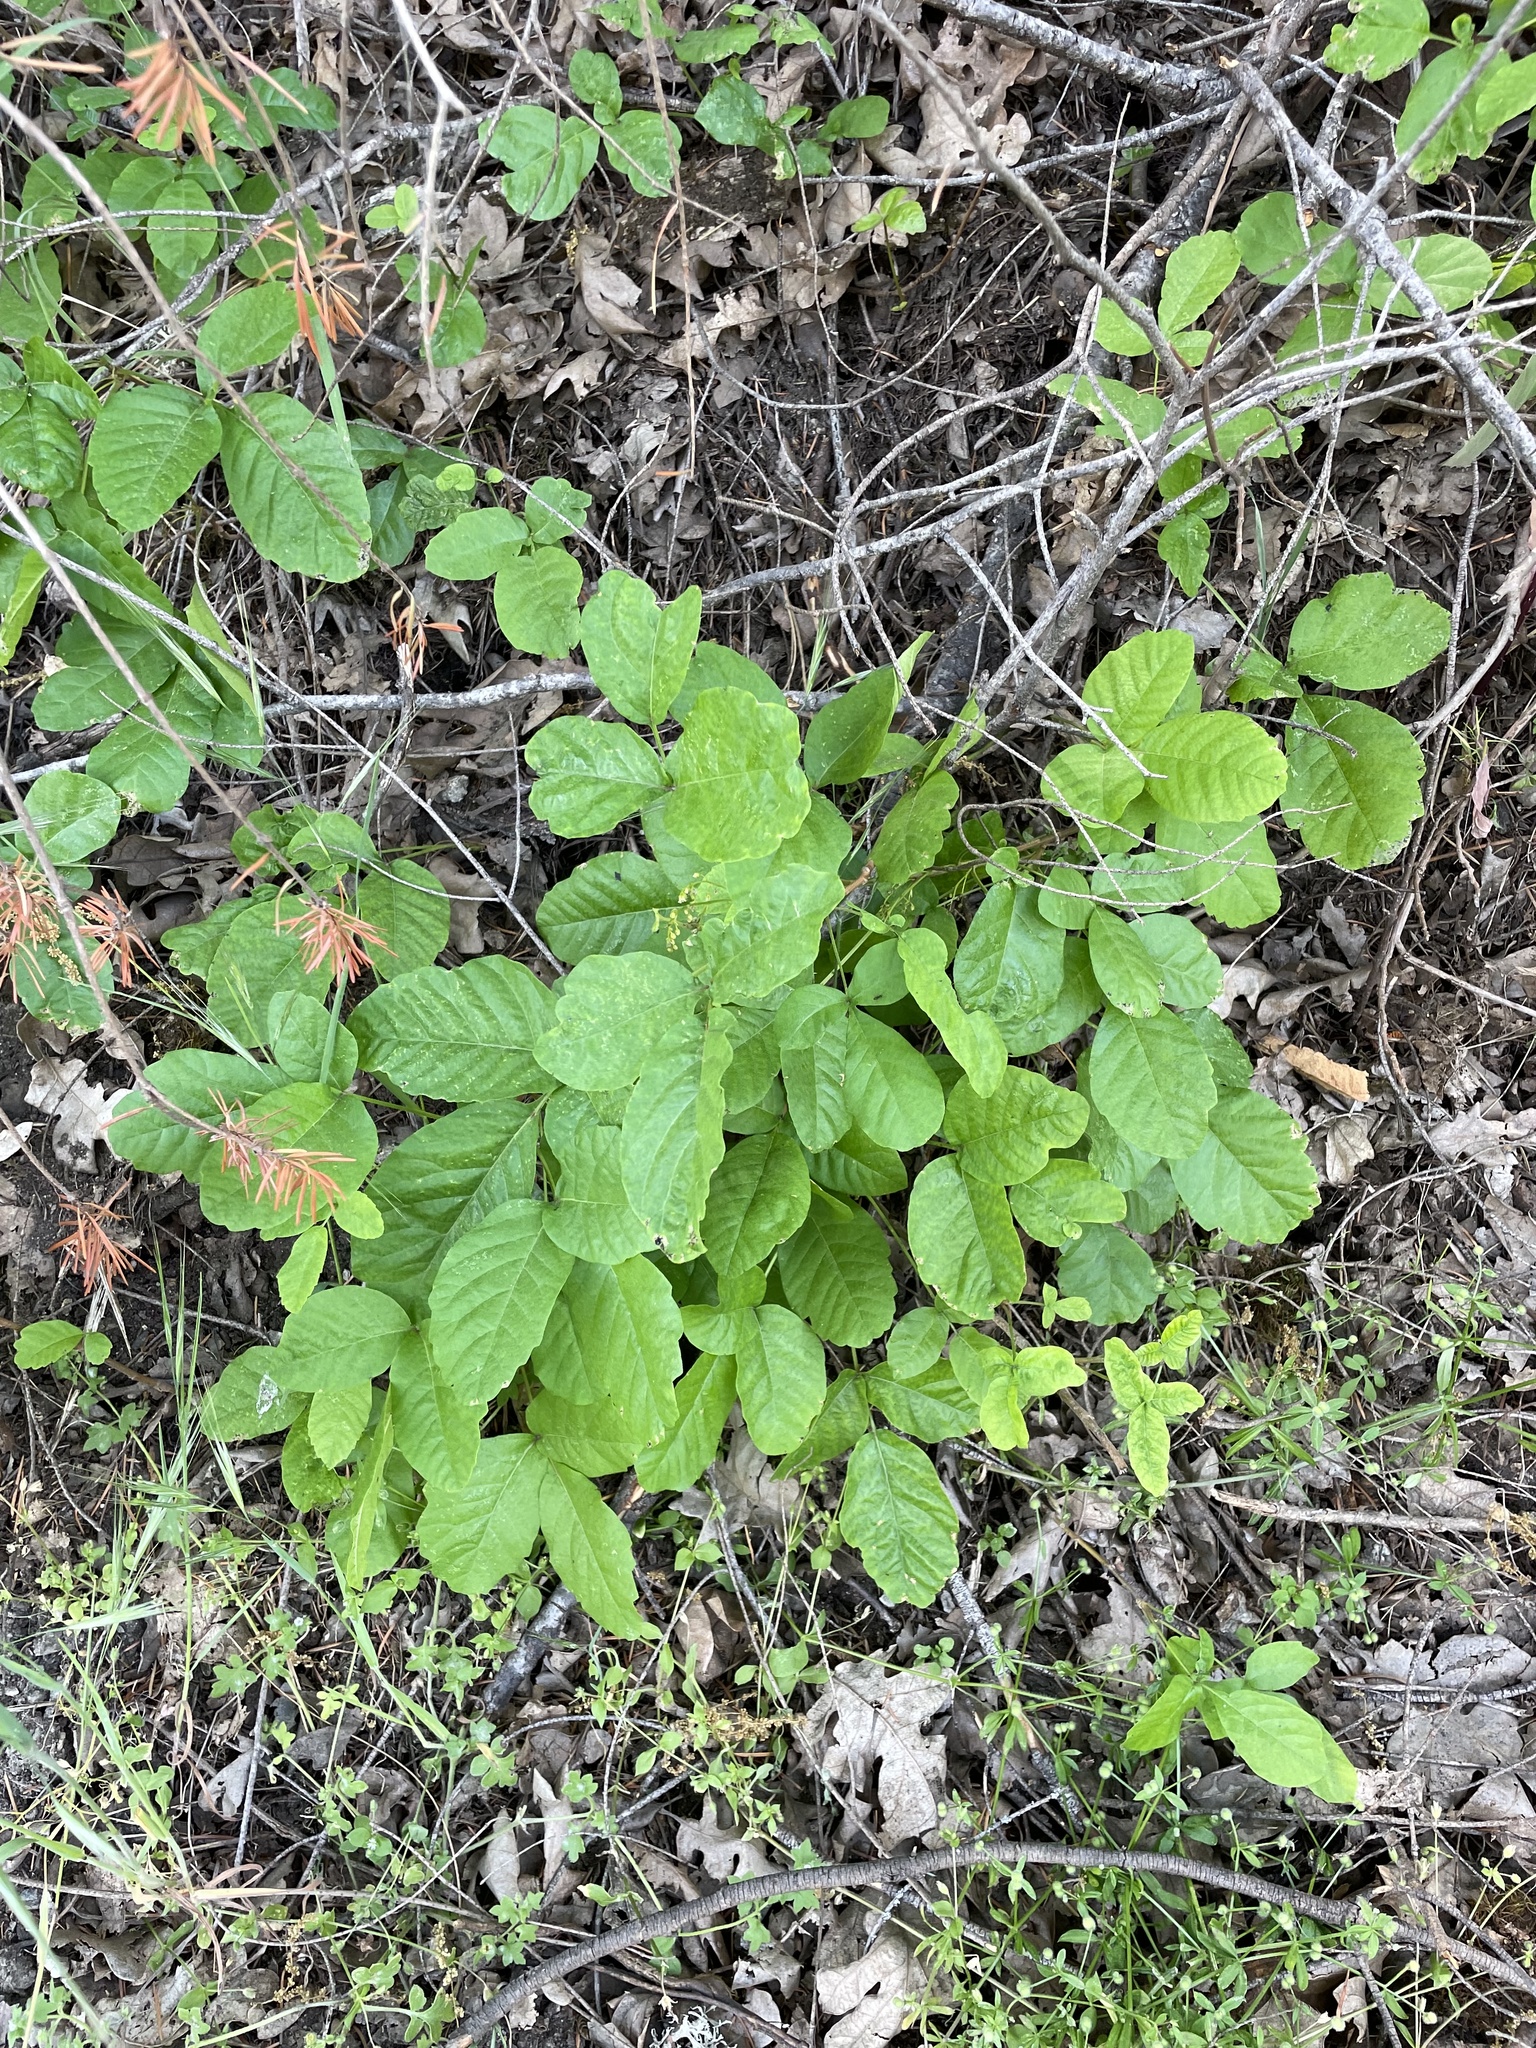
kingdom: Plantae
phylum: Tracheophyta
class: Magnoliopsida
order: Sapindales
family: Anacardiaceae
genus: Toxicodendron
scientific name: Toxicodendron diversilobum
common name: Pacific poison-oak
